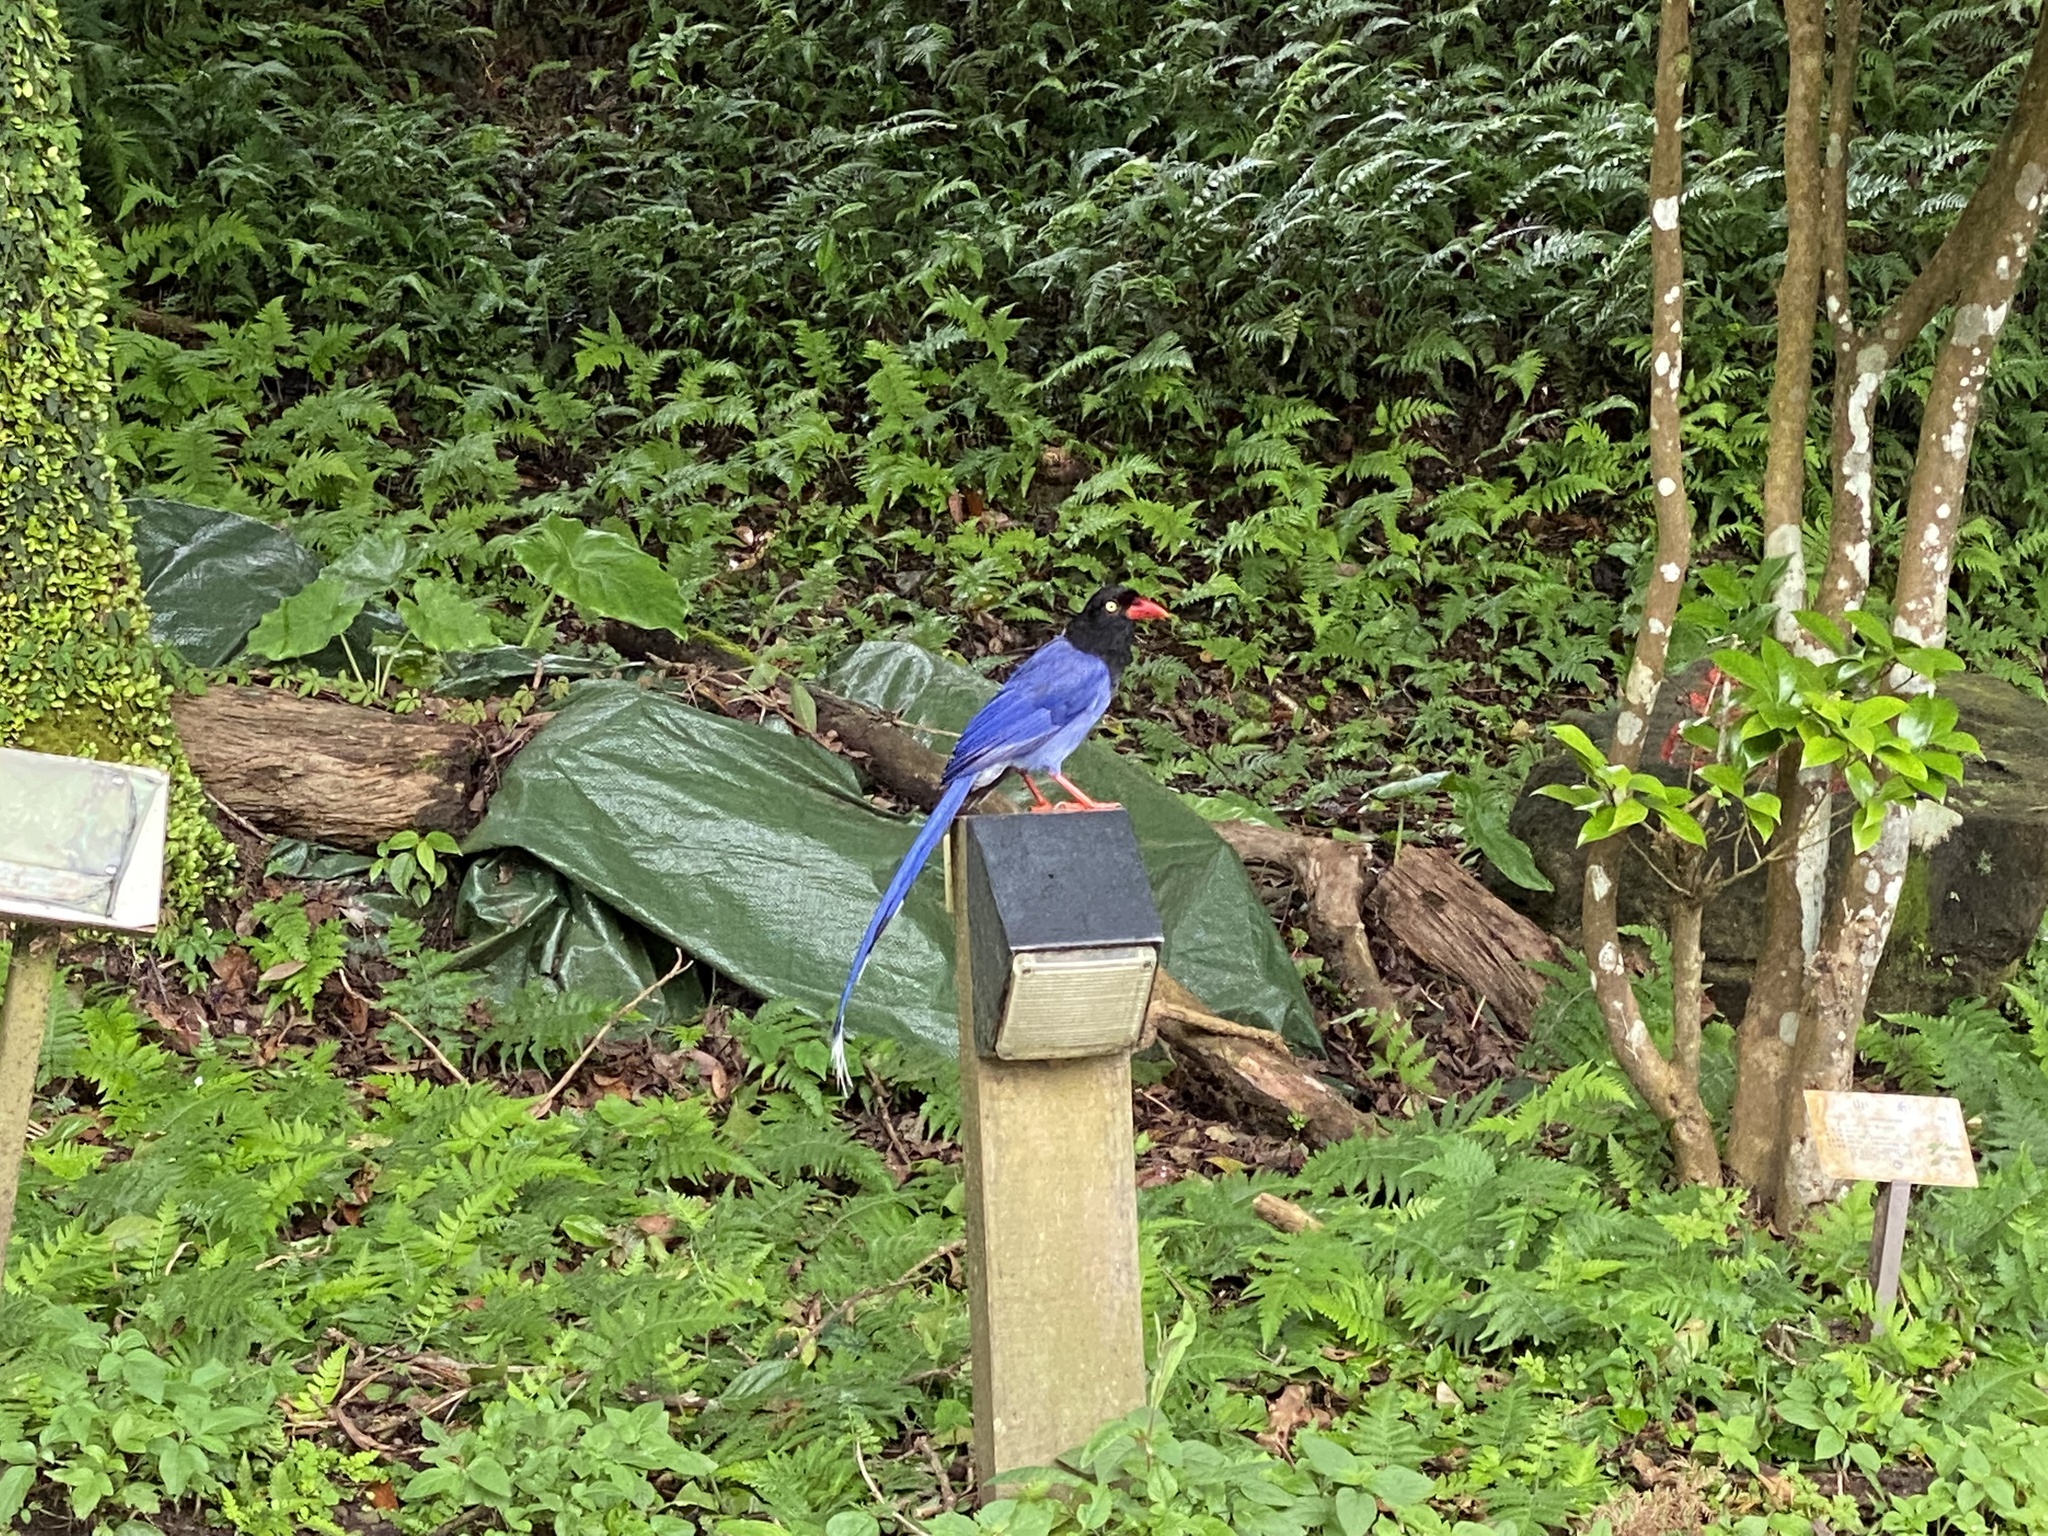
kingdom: Animalia
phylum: Chordata
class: Aves
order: Passeriformes
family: Corvidae
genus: Urocissa
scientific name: Urocissa caerulea
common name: Taiwan blue magpie
